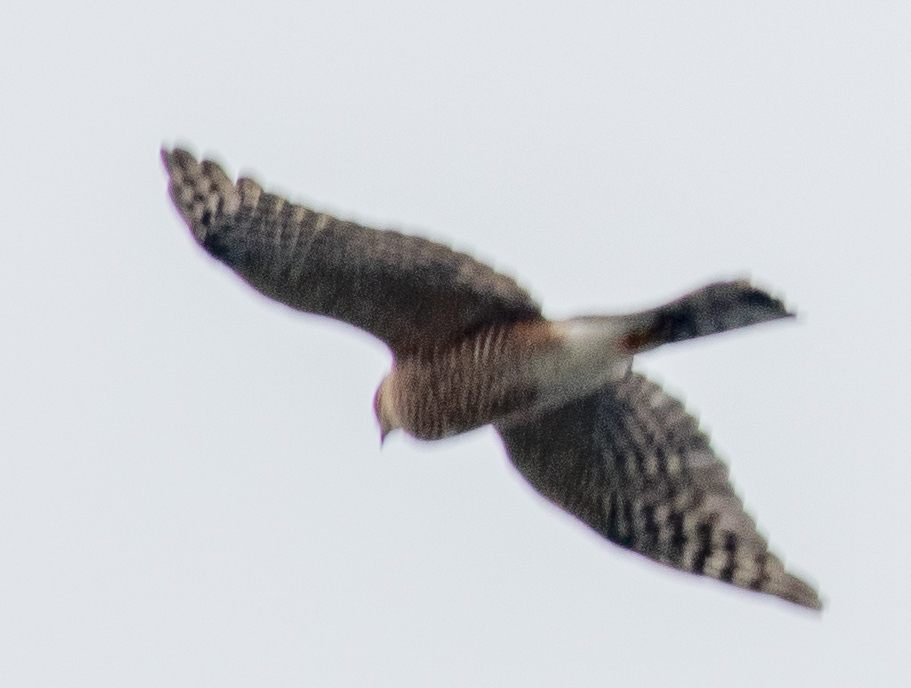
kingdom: Animalia
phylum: Chordata
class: Aves
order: Accipitriformes
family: Accipitridae
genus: Accipiter
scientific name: Accipiter striatus
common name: Sharp-shinned hawk
